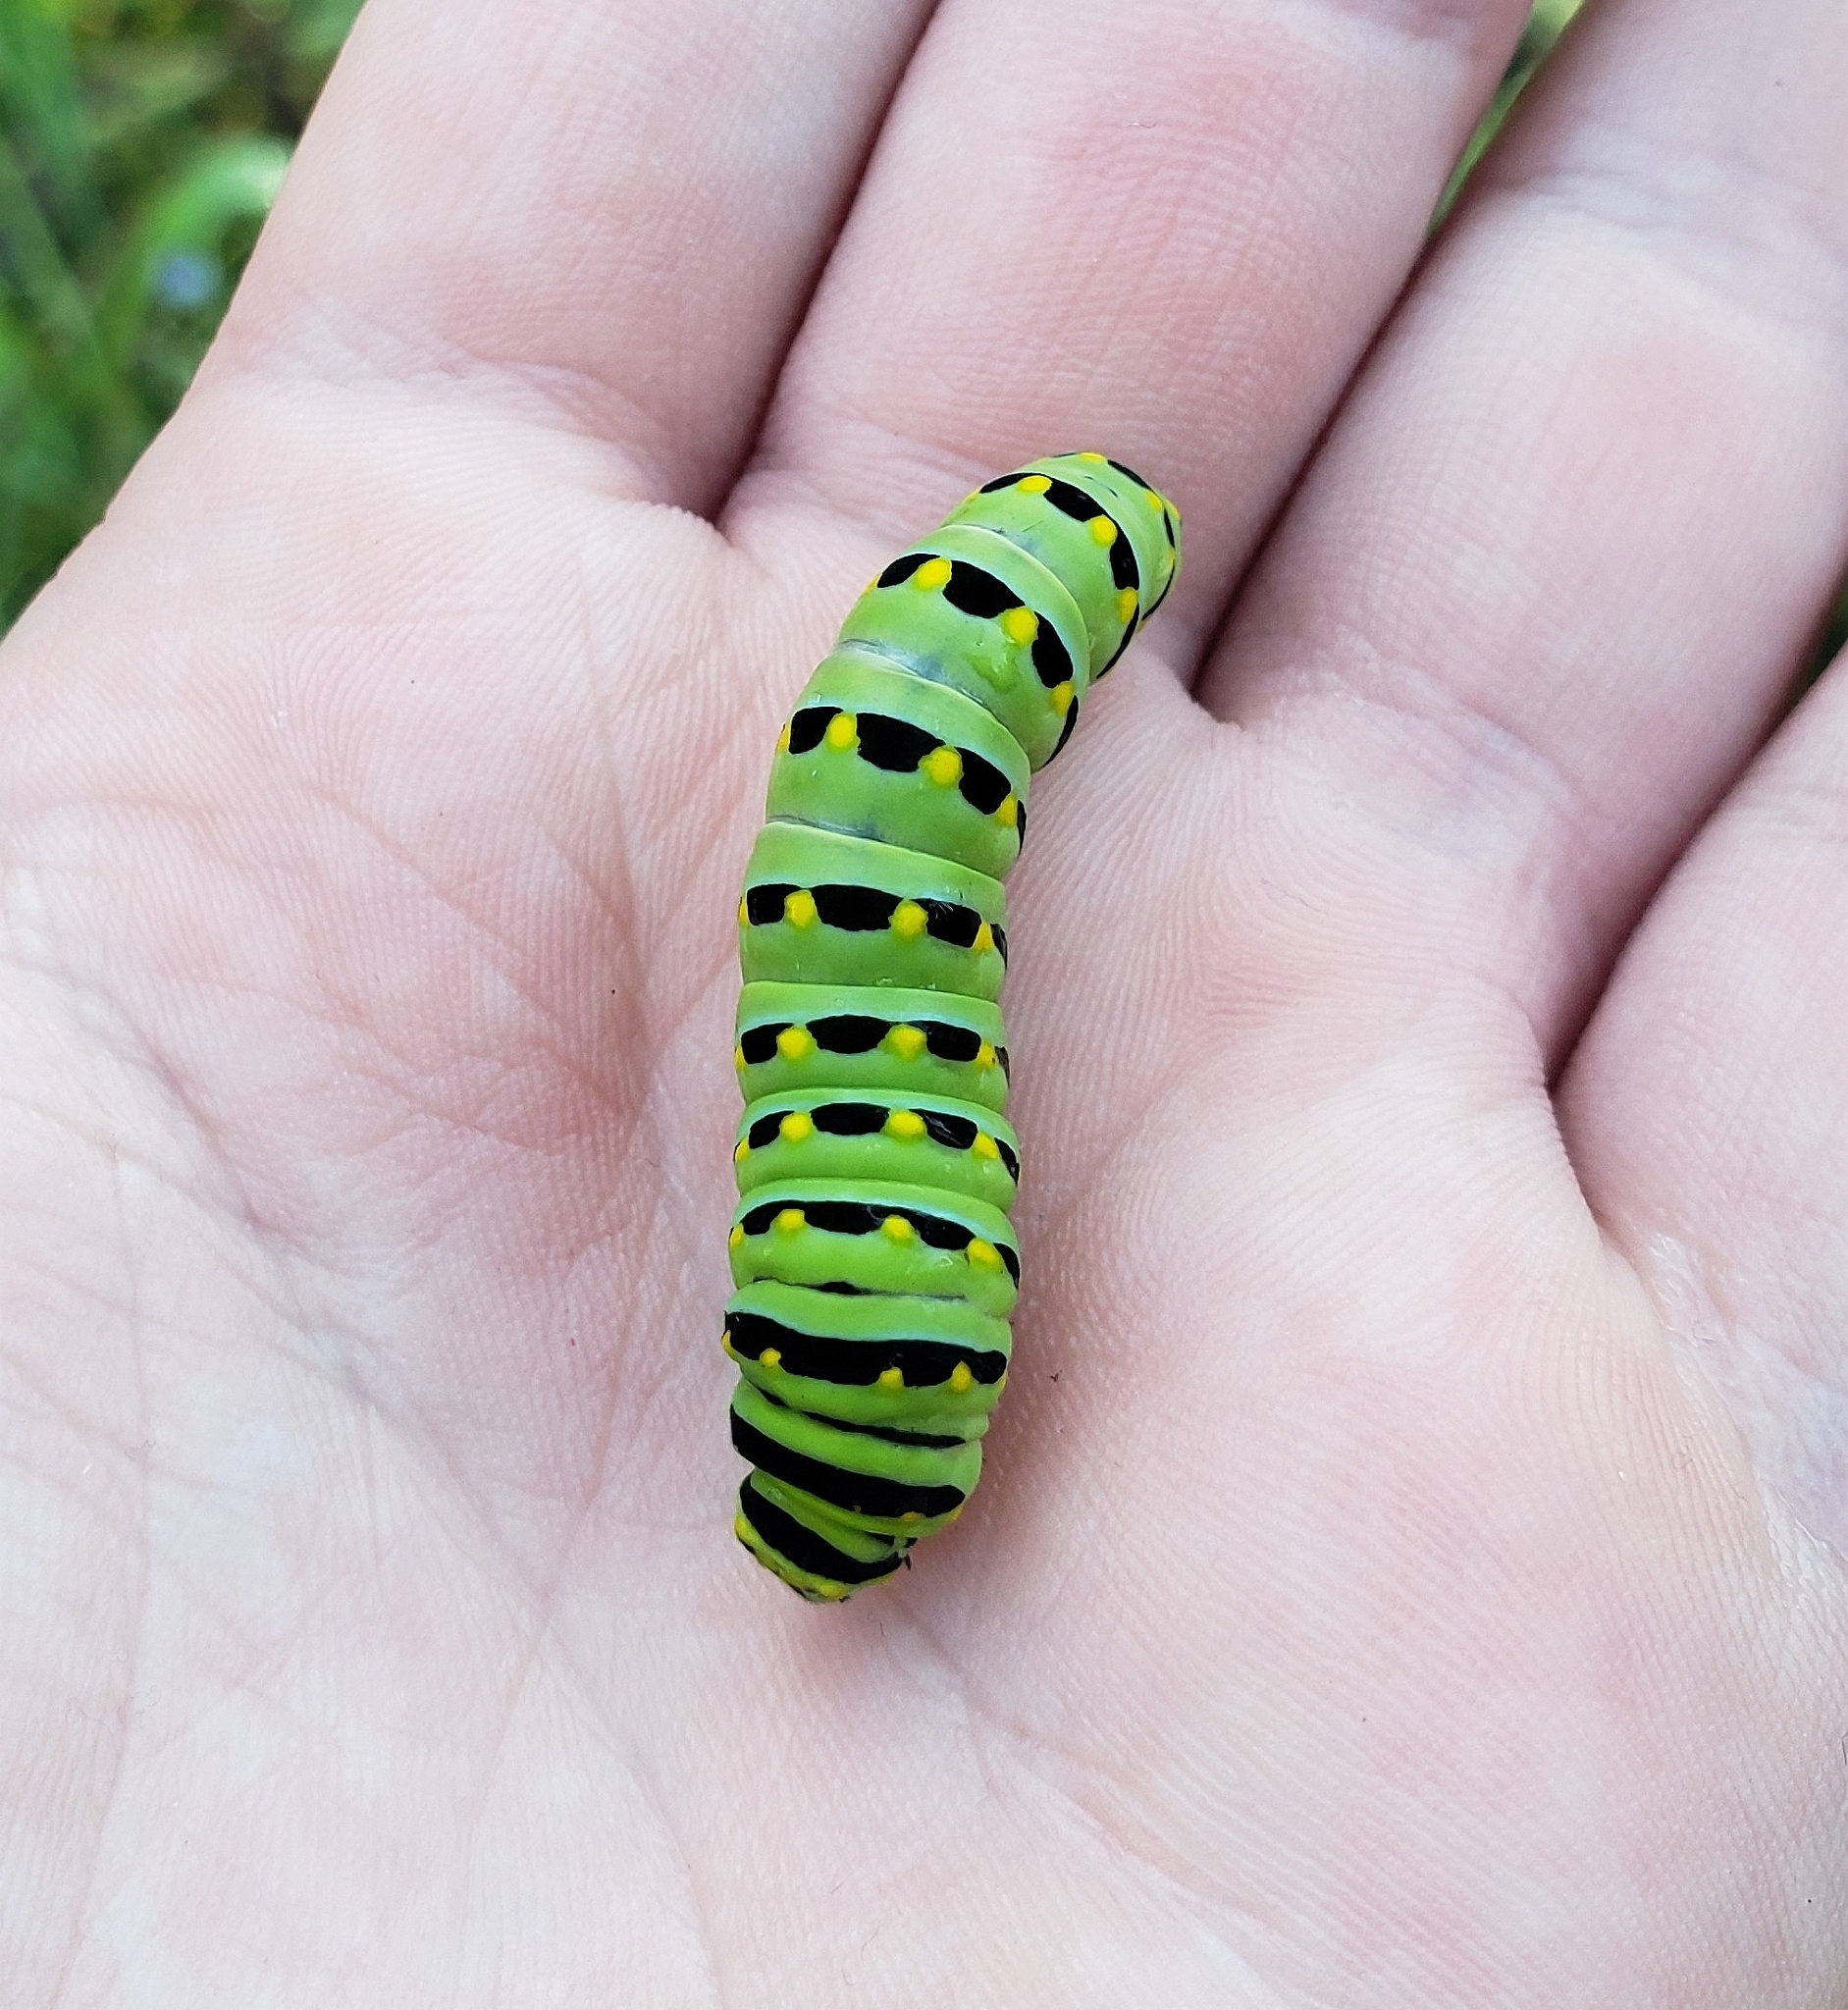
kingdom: Animalia
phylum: Arthropoda
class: Insecta
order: Lepidoptera
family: Papilionidae
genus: Papilio
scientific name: Papilio polyxenes
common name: Black swallowtail
